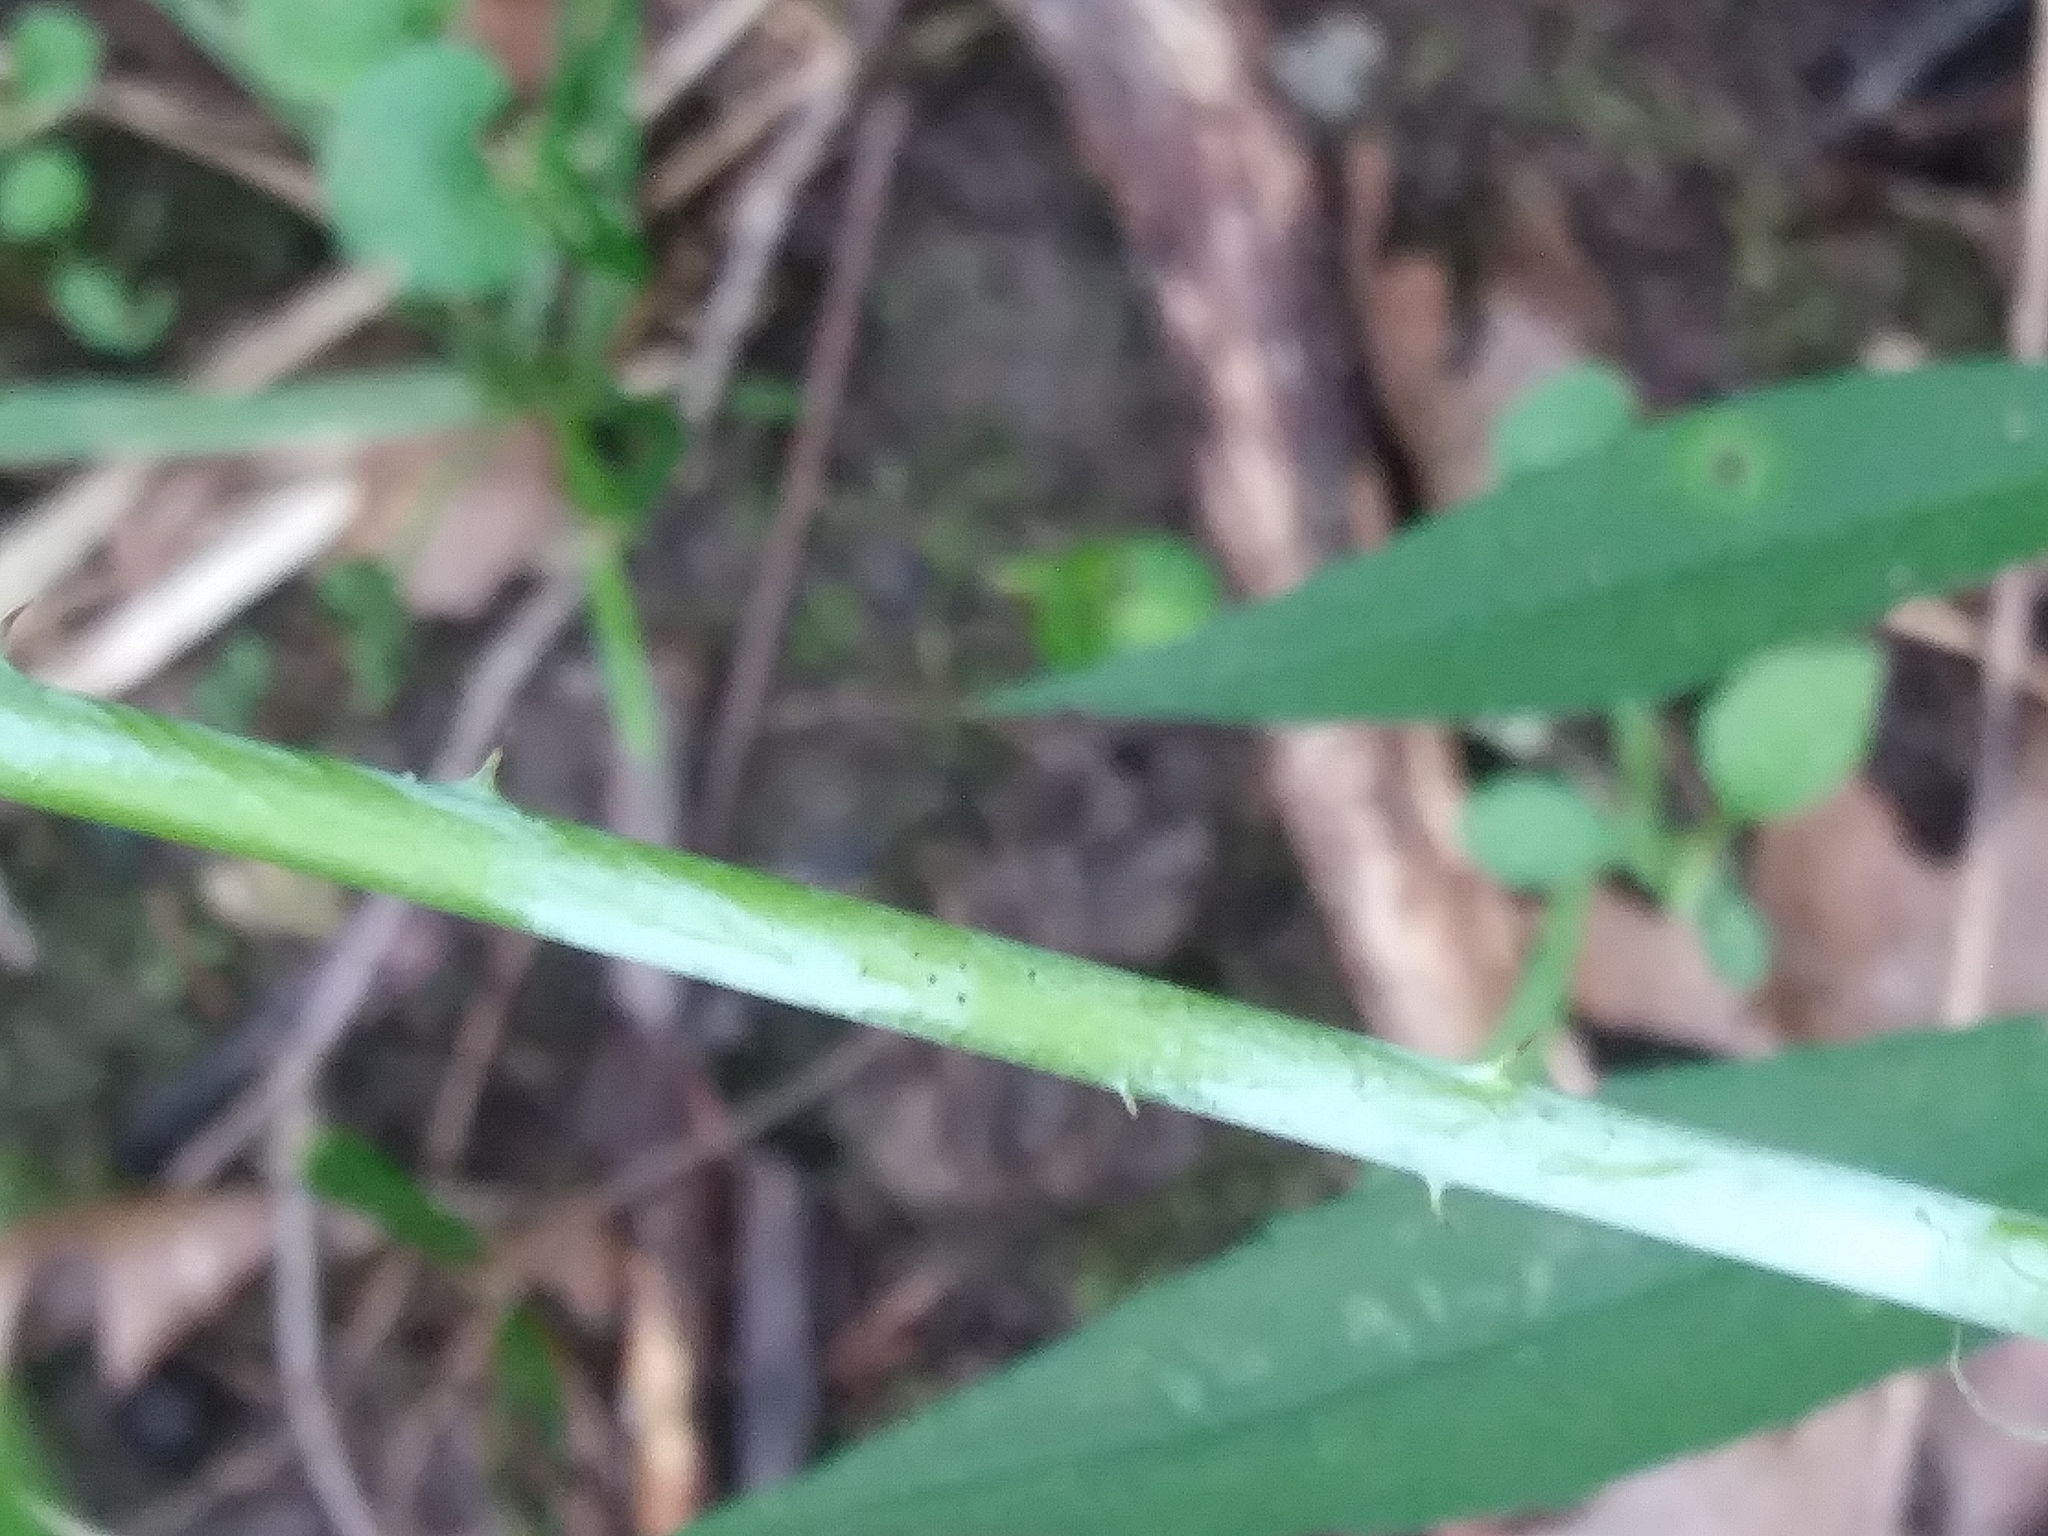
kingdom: Plantae
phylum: Tracheophyta
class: Magnoliopsida
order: Rosales
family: Rosaceae
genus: Rubus
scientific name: Rubus occidentalis
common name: Black raspberry
